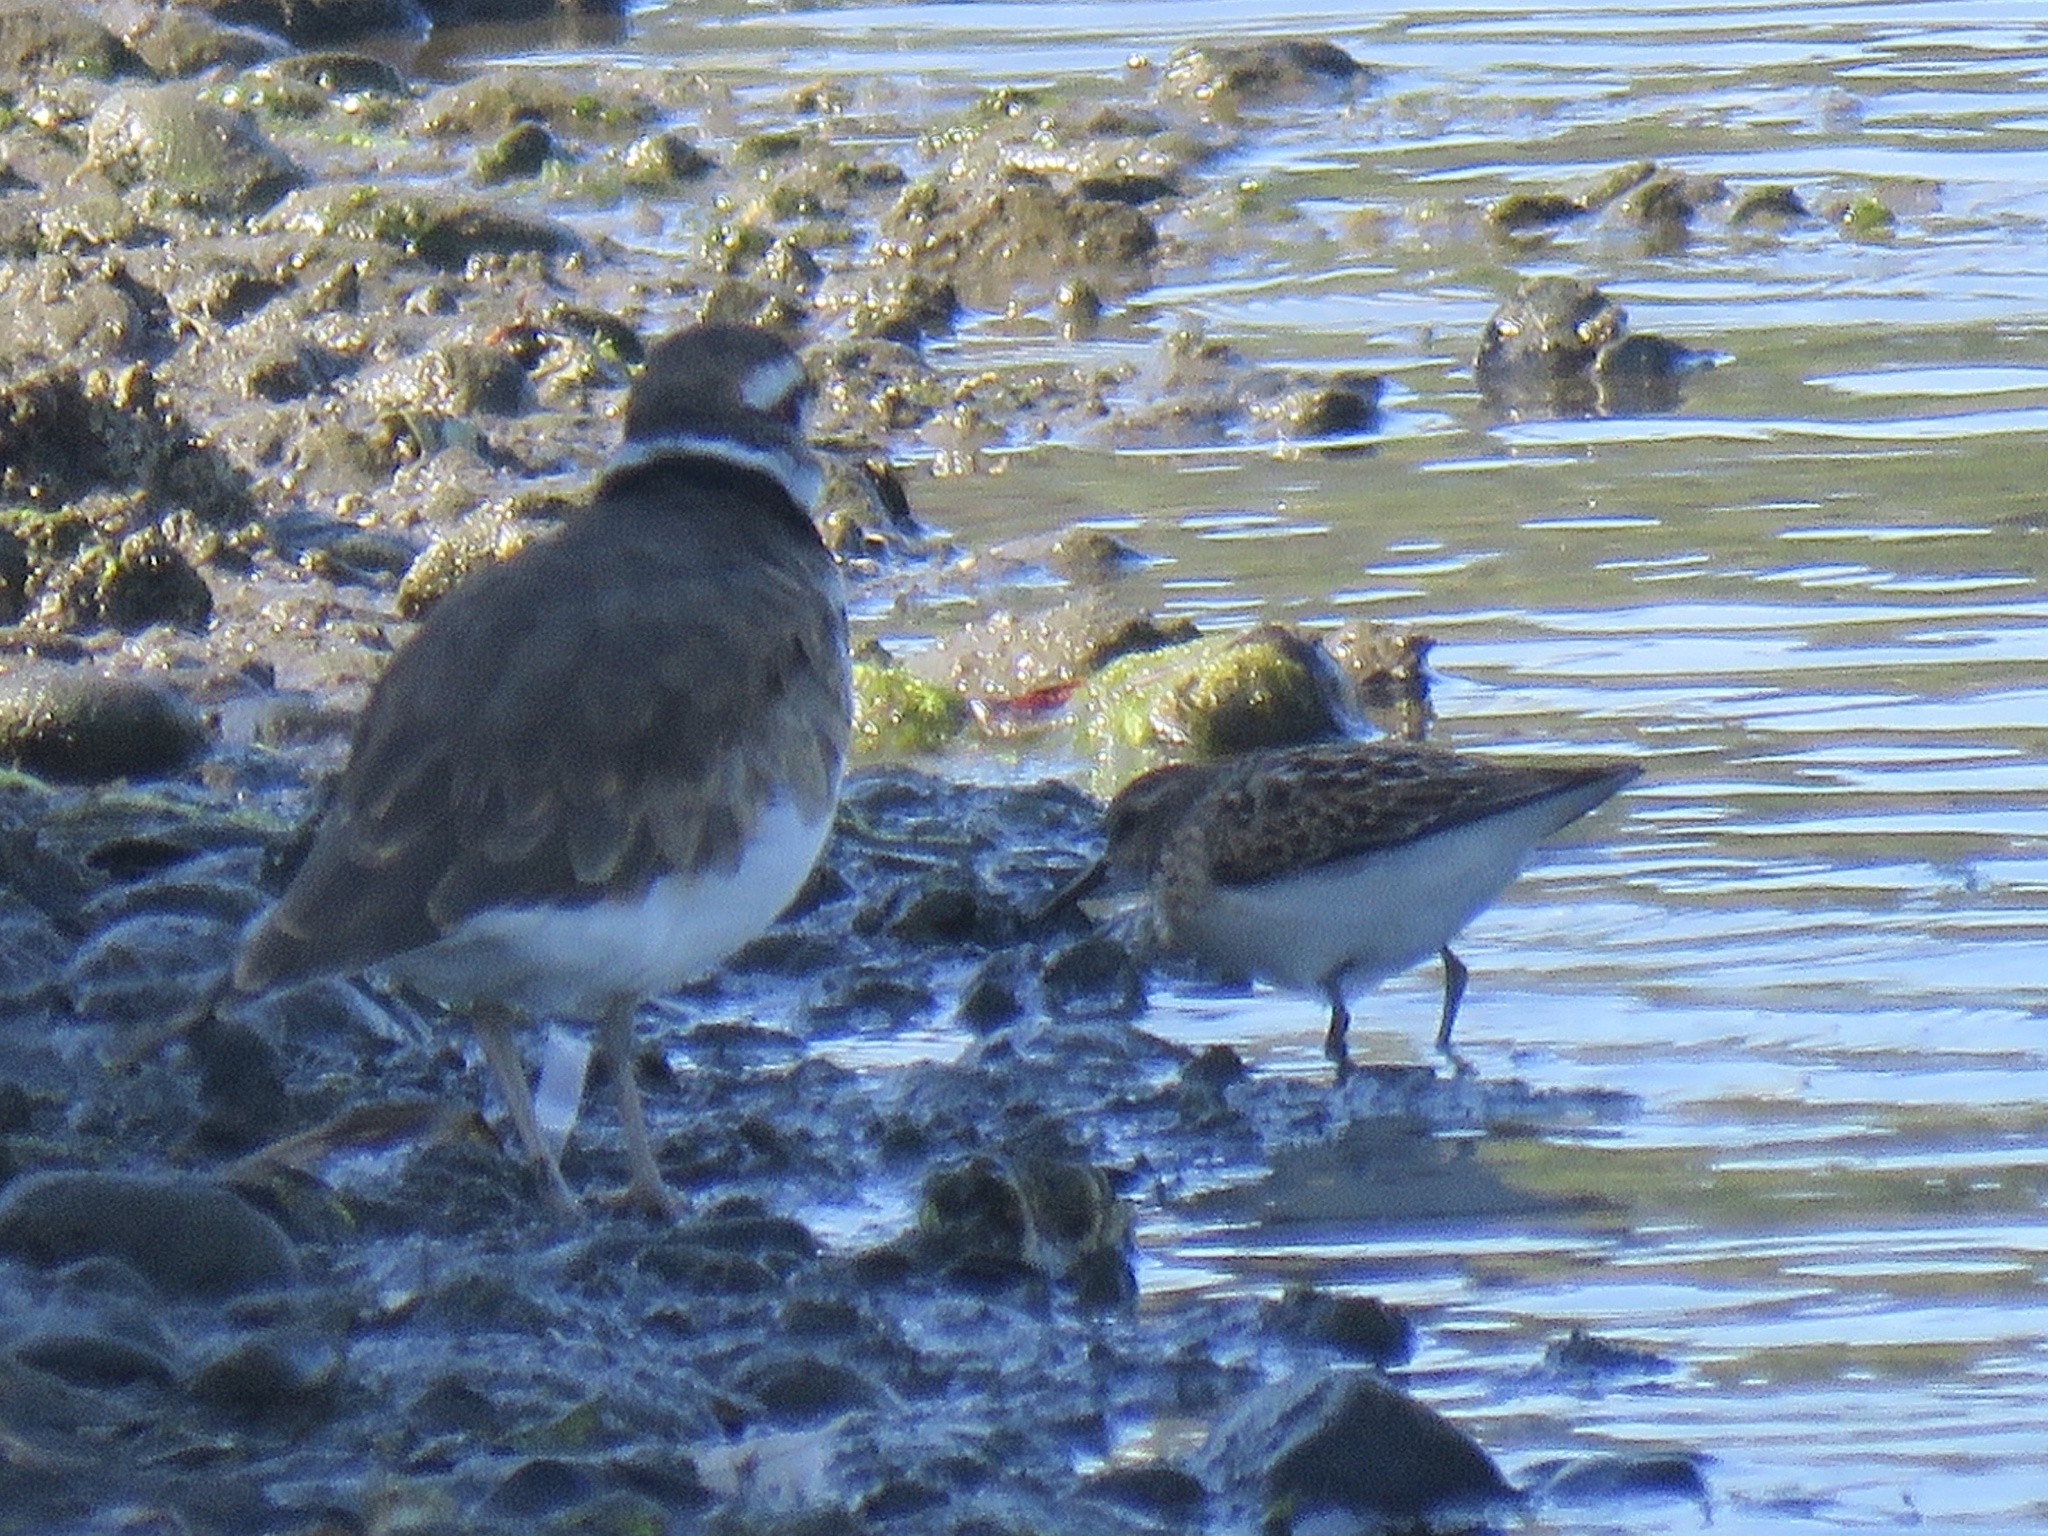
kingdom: Animalia
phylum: Chordata
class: Aves
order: Charadriiformes
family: Scolopacidae
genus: Calidris
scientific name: Calidris minutilla
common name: Least sandpiper
